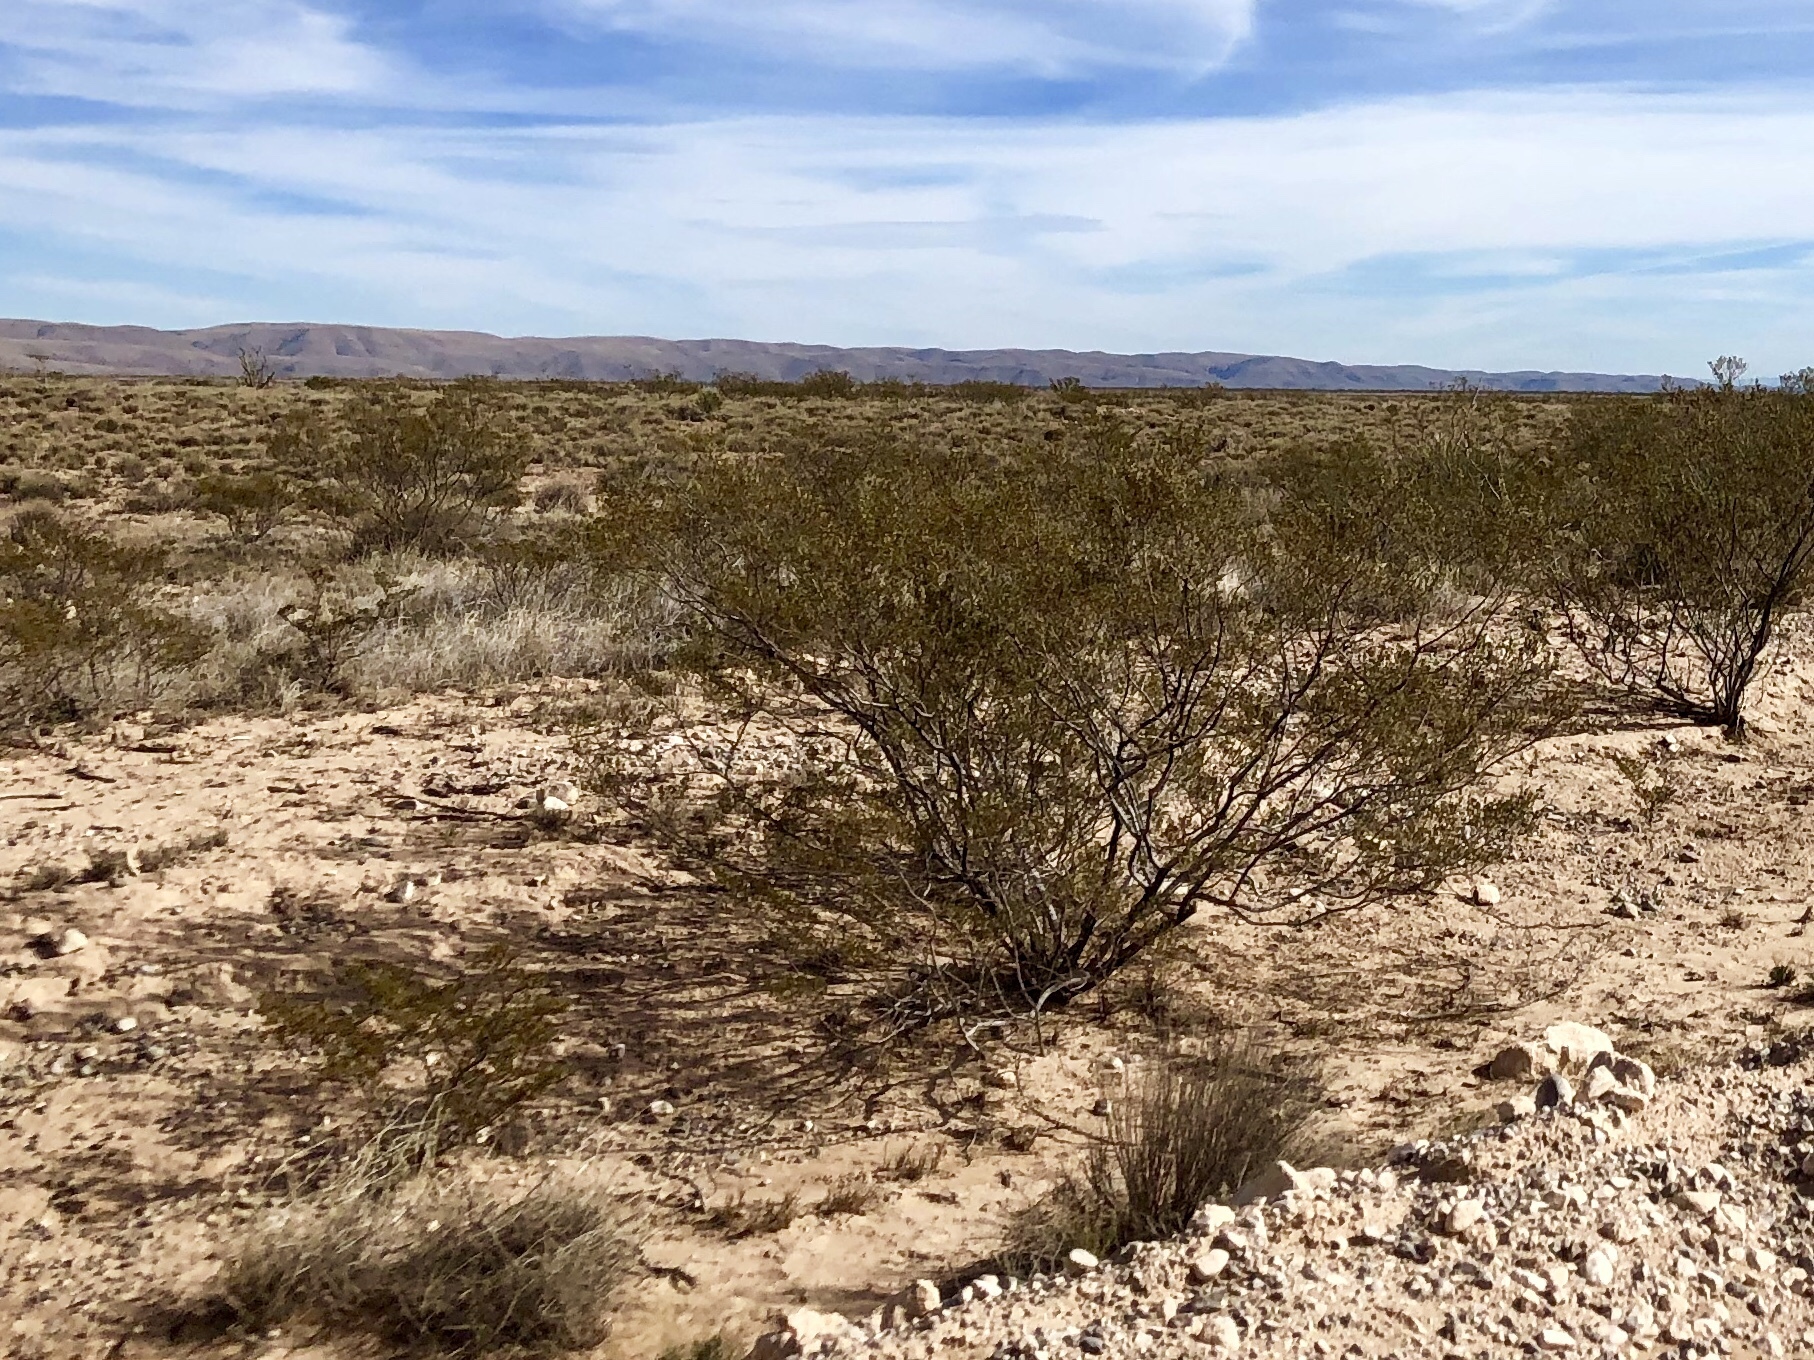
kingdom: Plantae
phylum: Tracheophyta
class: Magnoliopsida
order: Zygophyllales
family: Zygophyllaceae
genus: Larrea
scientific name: Larrea tridentata
